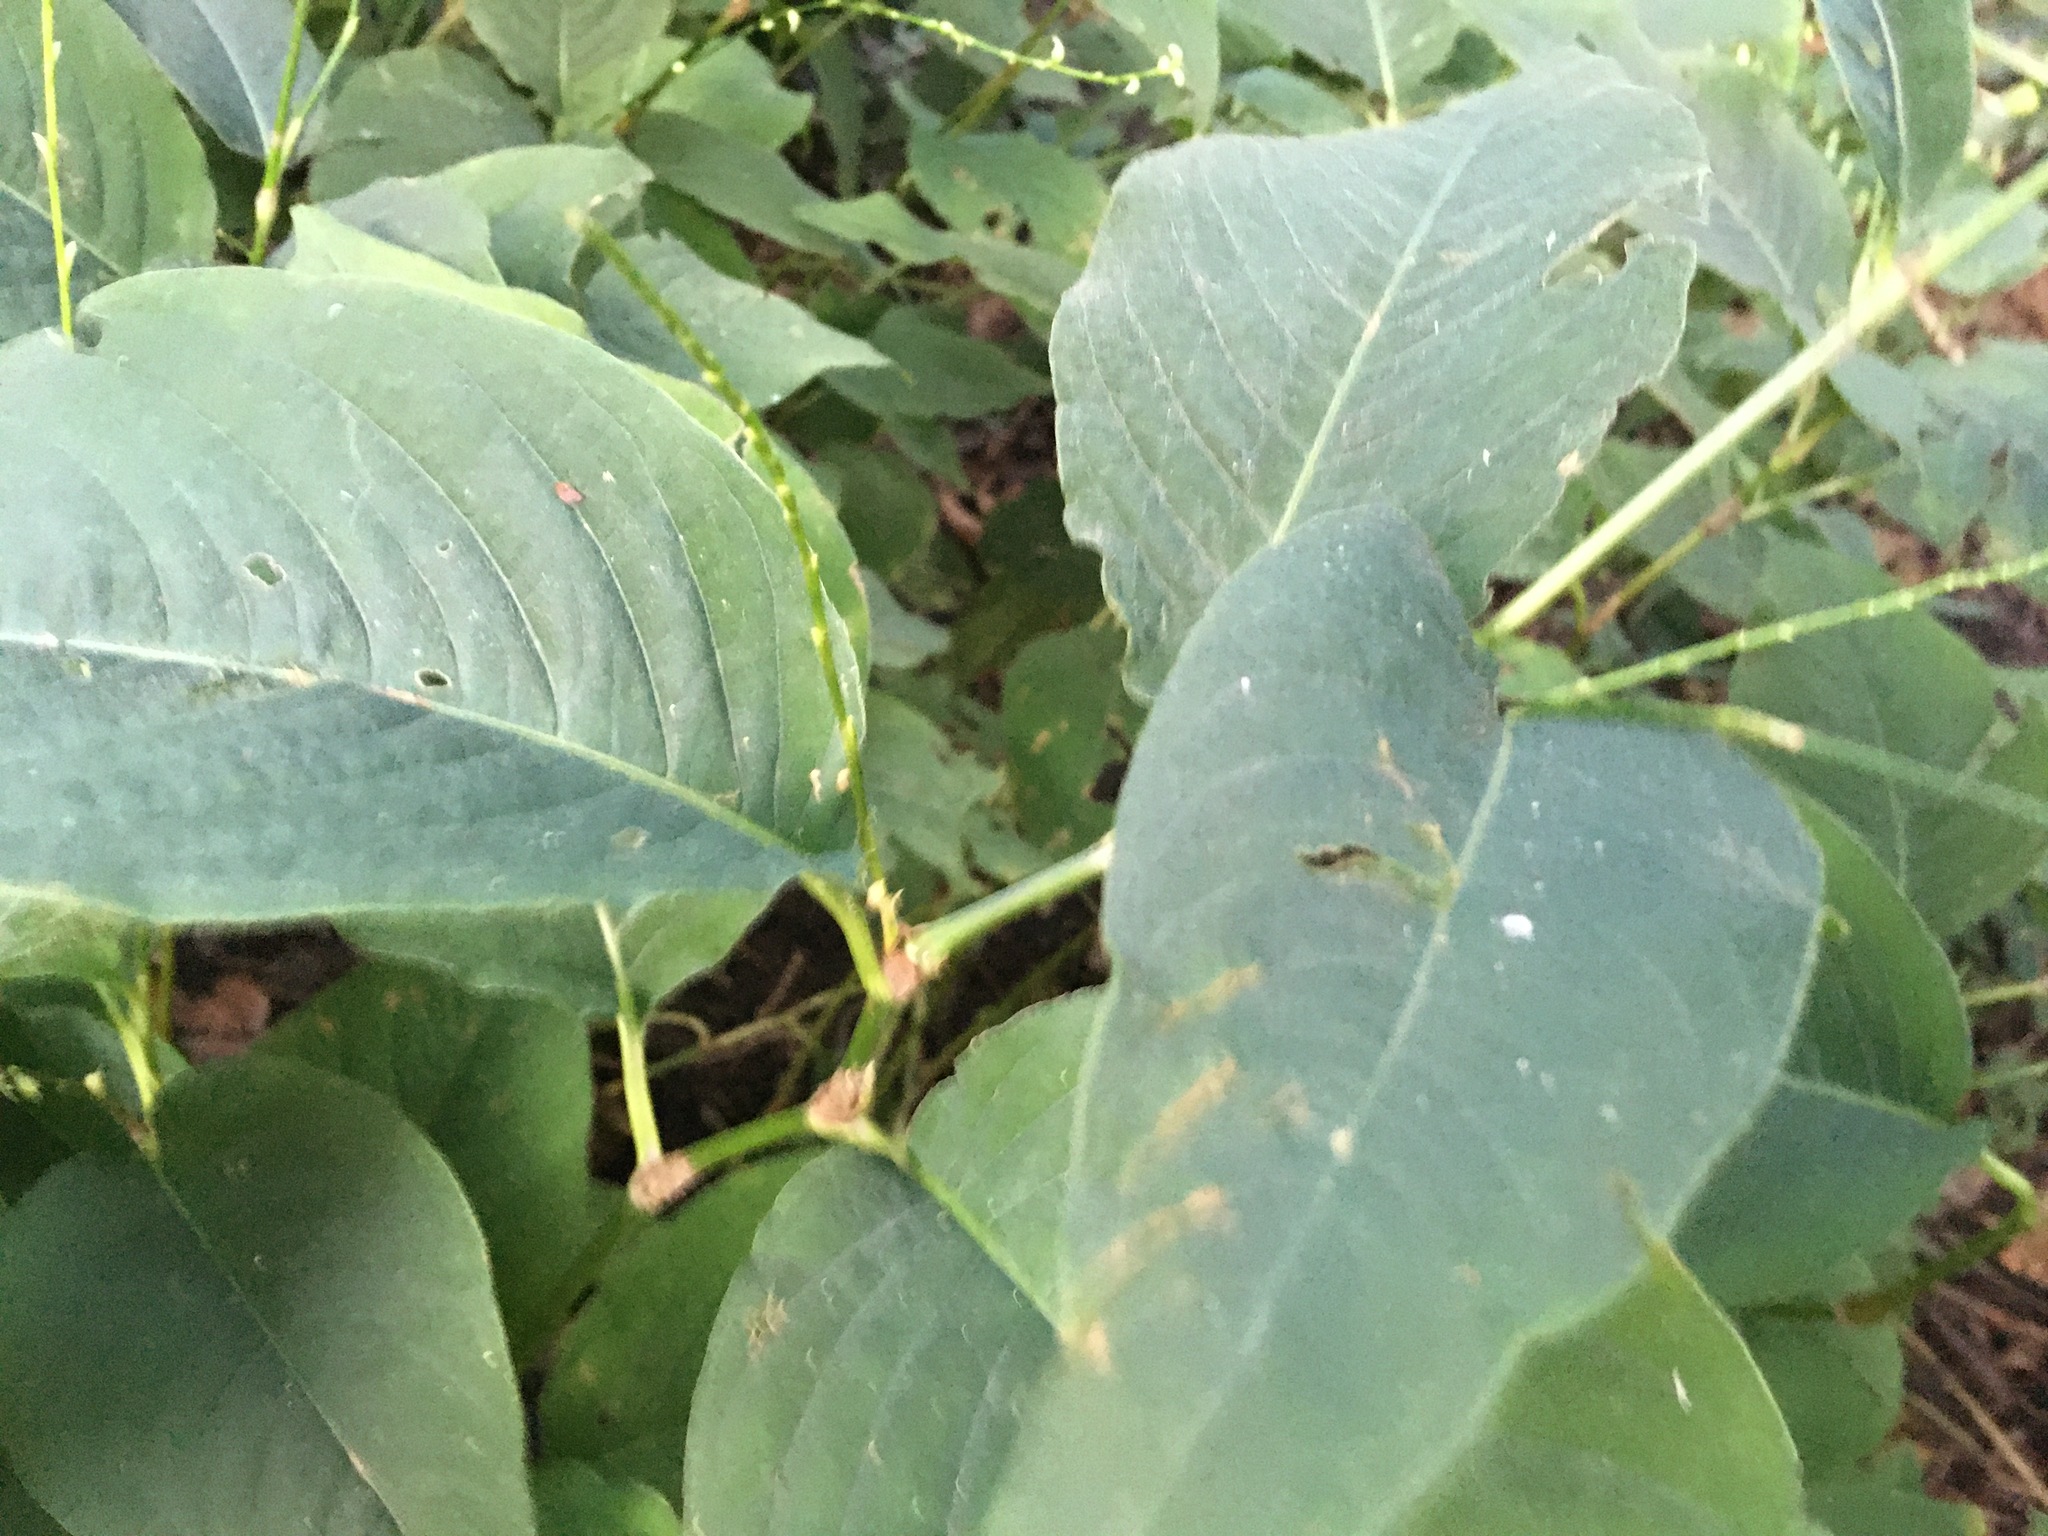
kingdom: Plantae
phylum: Tracheophyta
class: Magnoliopsida
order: Caryophyllales
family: Polygonaceae
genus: Persicaria
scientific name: Persicaria virginiana
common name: Jumpseed
